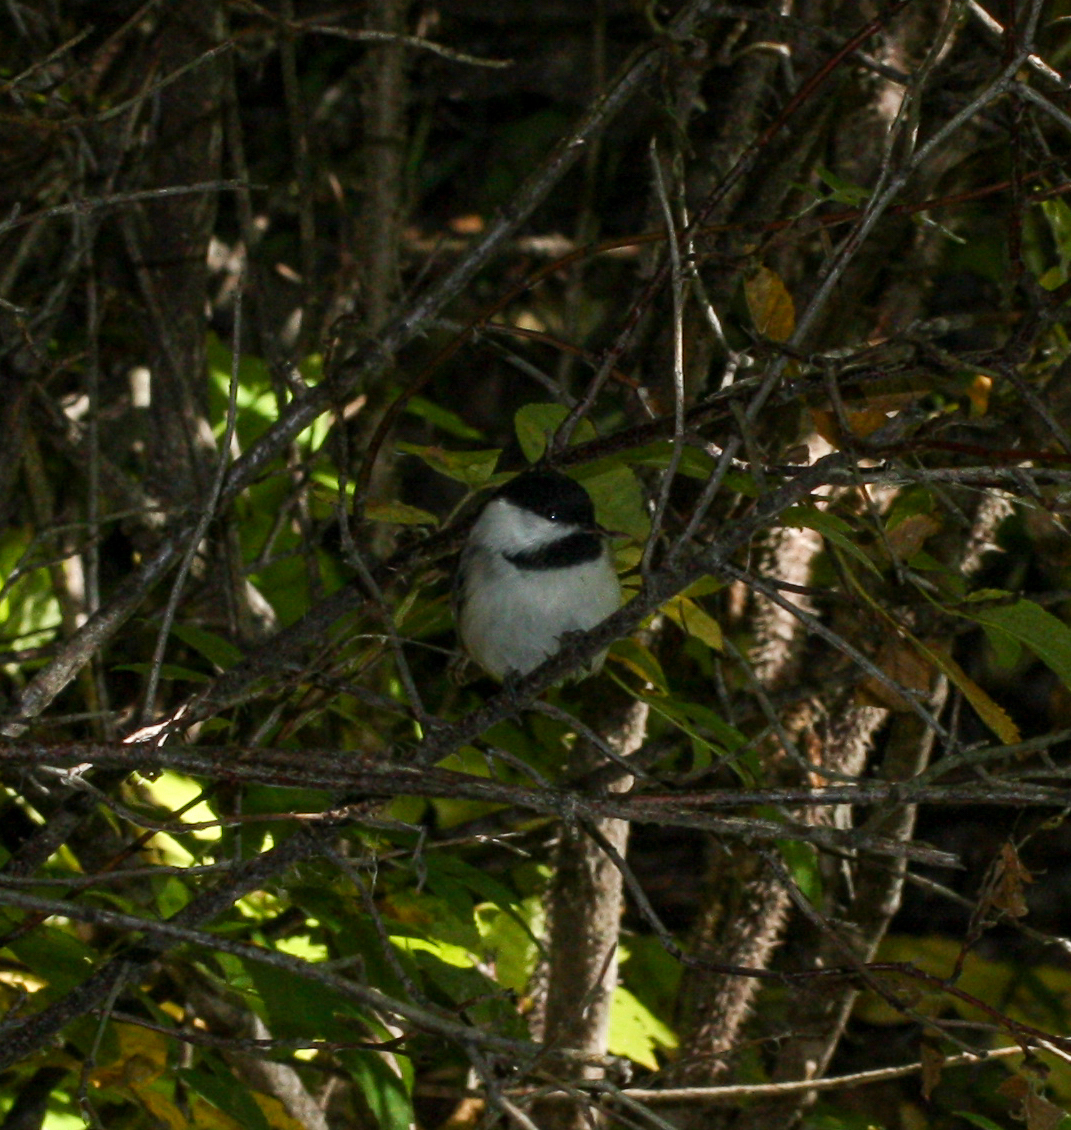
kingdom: Animalia
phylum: Chordata
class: Aves
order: Passeriformes
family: Paridae
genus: Poecile
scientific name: Poecile atricapillus
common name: Black-capped chickadee
